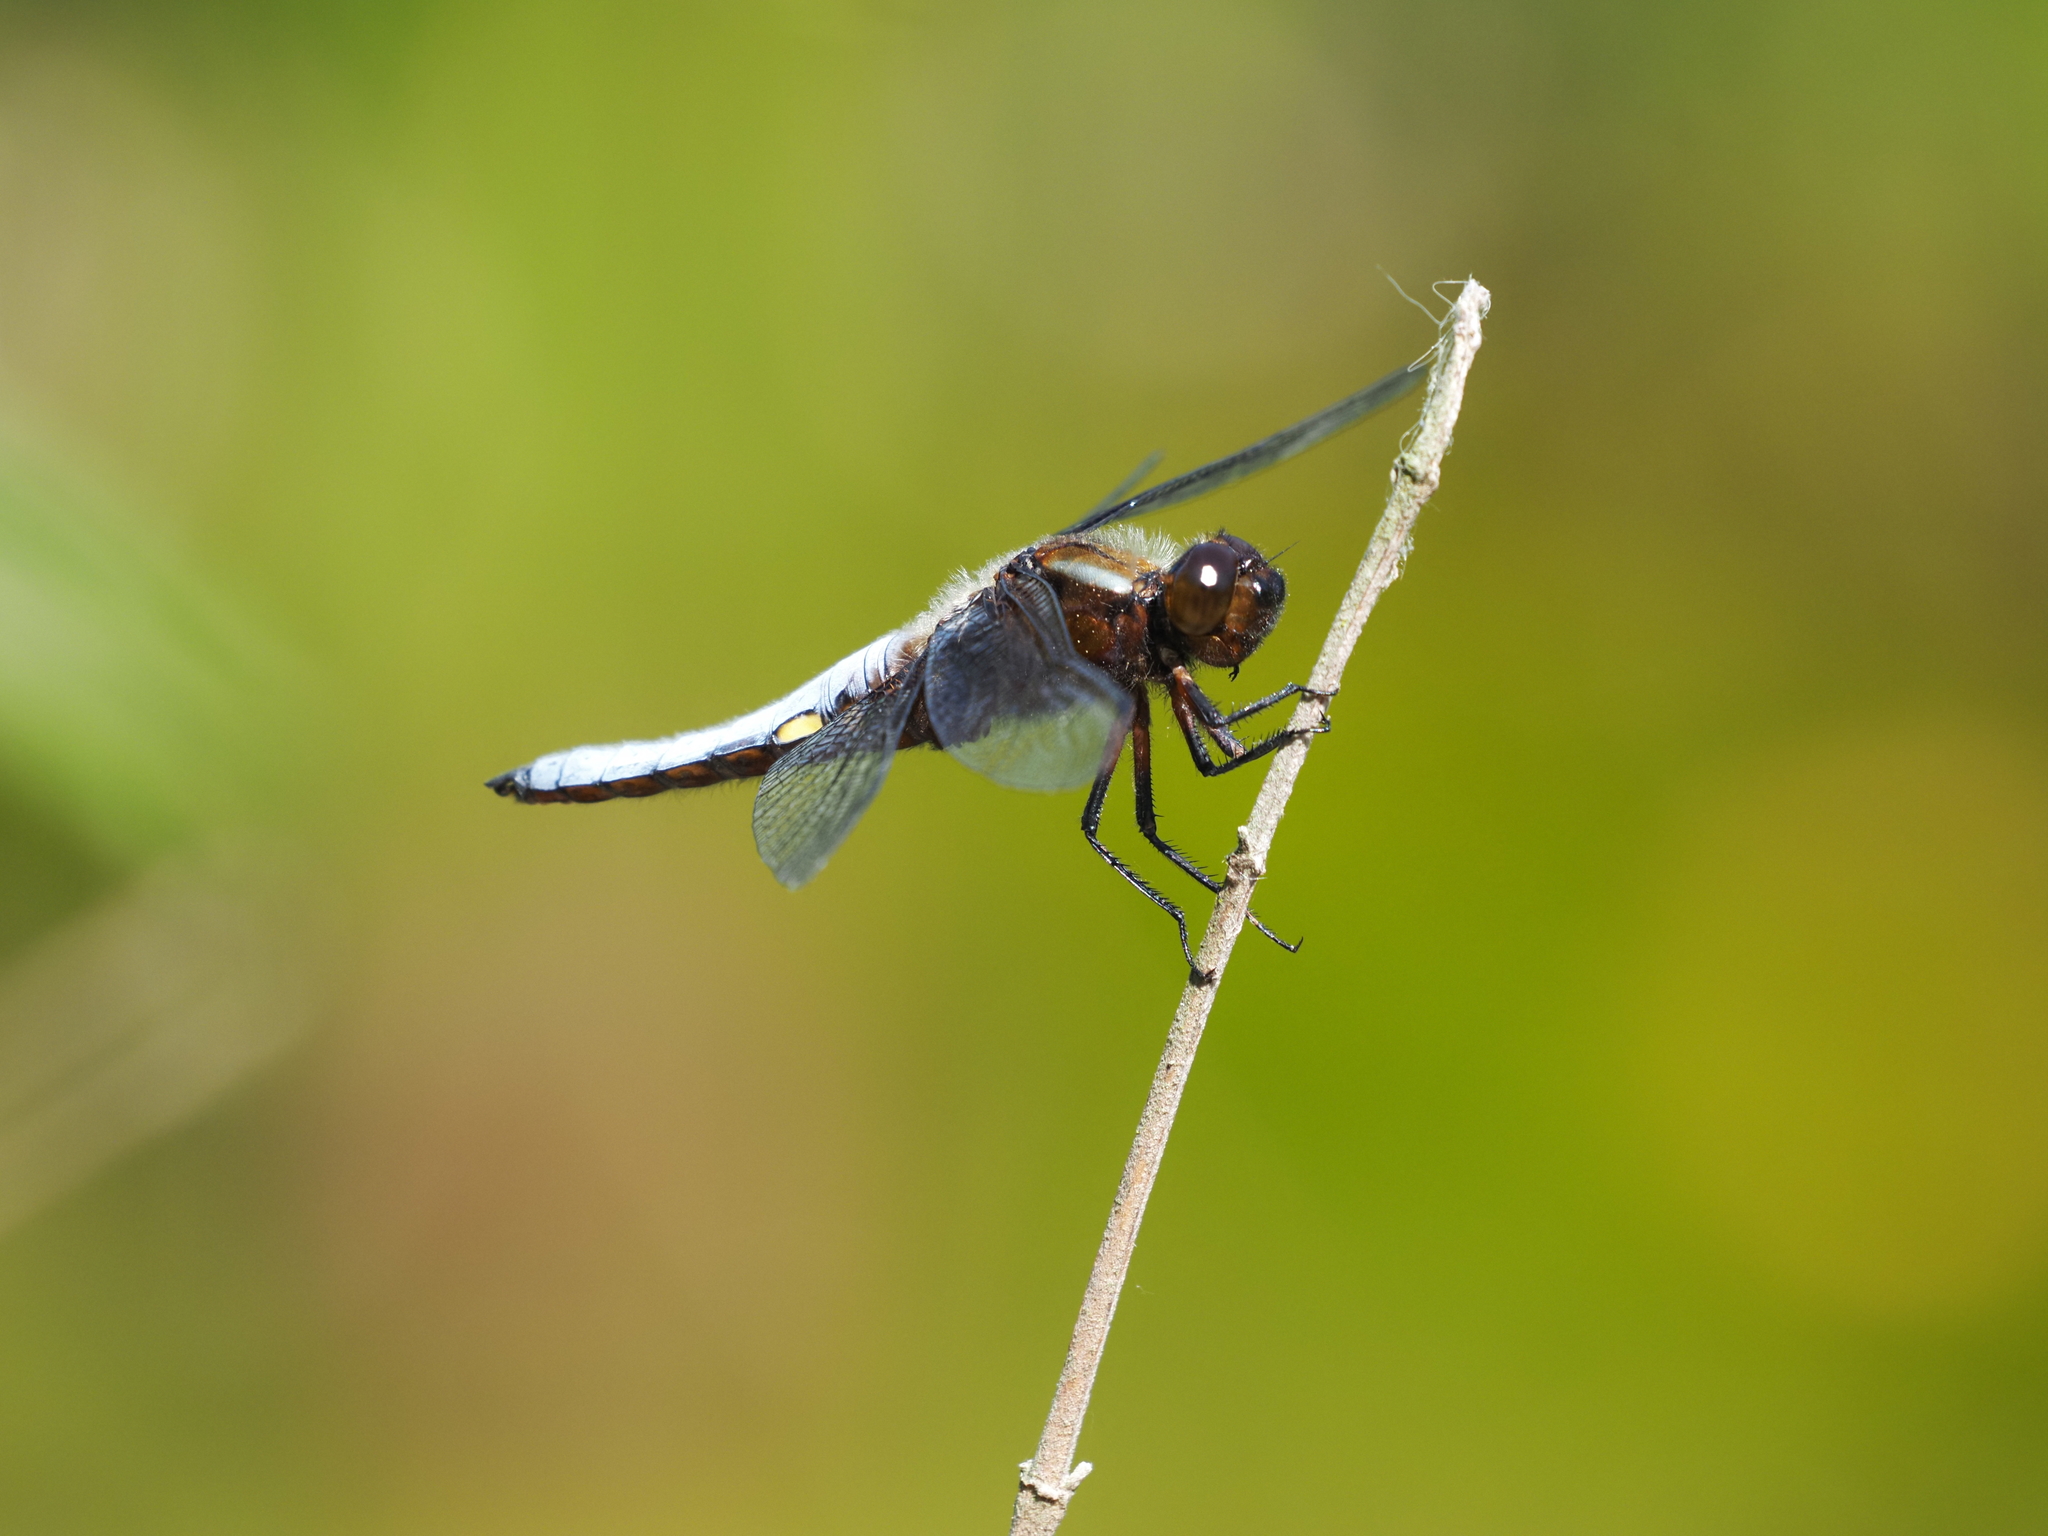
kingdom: Animalia
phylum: Arthropoda
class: Insecta
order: Odonata
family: Libellulidae
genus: Libellula
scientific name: Libellula depressa
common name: Broad-bodied chaser
